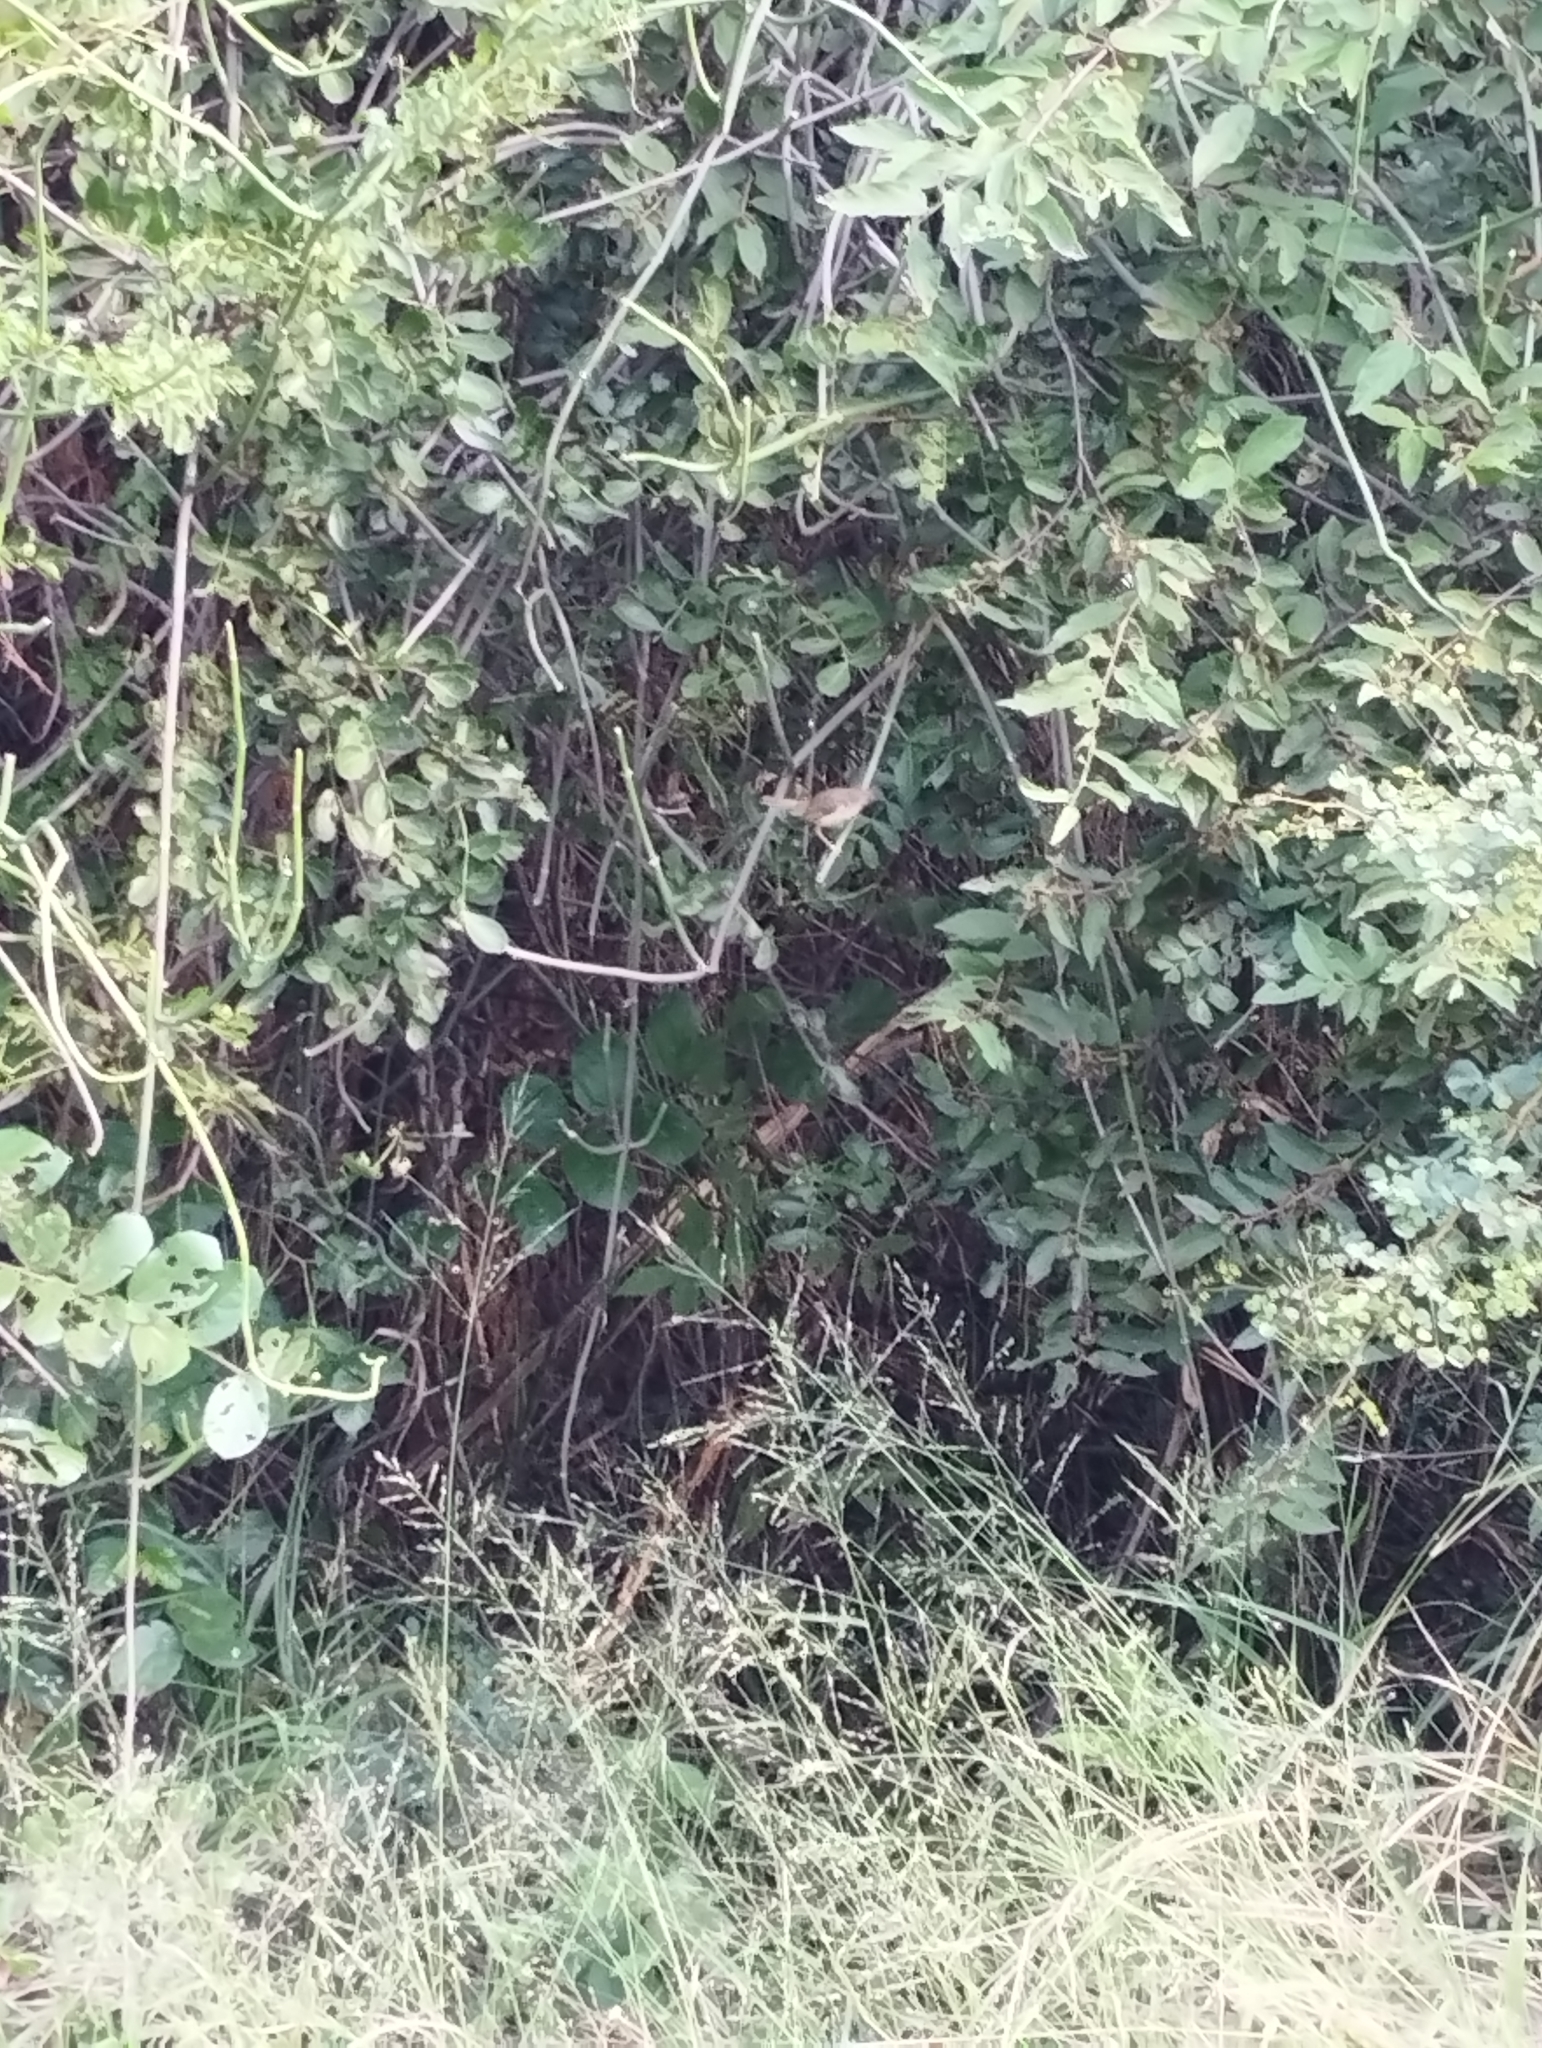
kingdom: Animalia
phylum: Chordata
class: Aves
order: Passeriformes
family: Cisticolidae
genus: Prinia
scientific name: Prinia subflava
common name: Tawny-flanked prinia
